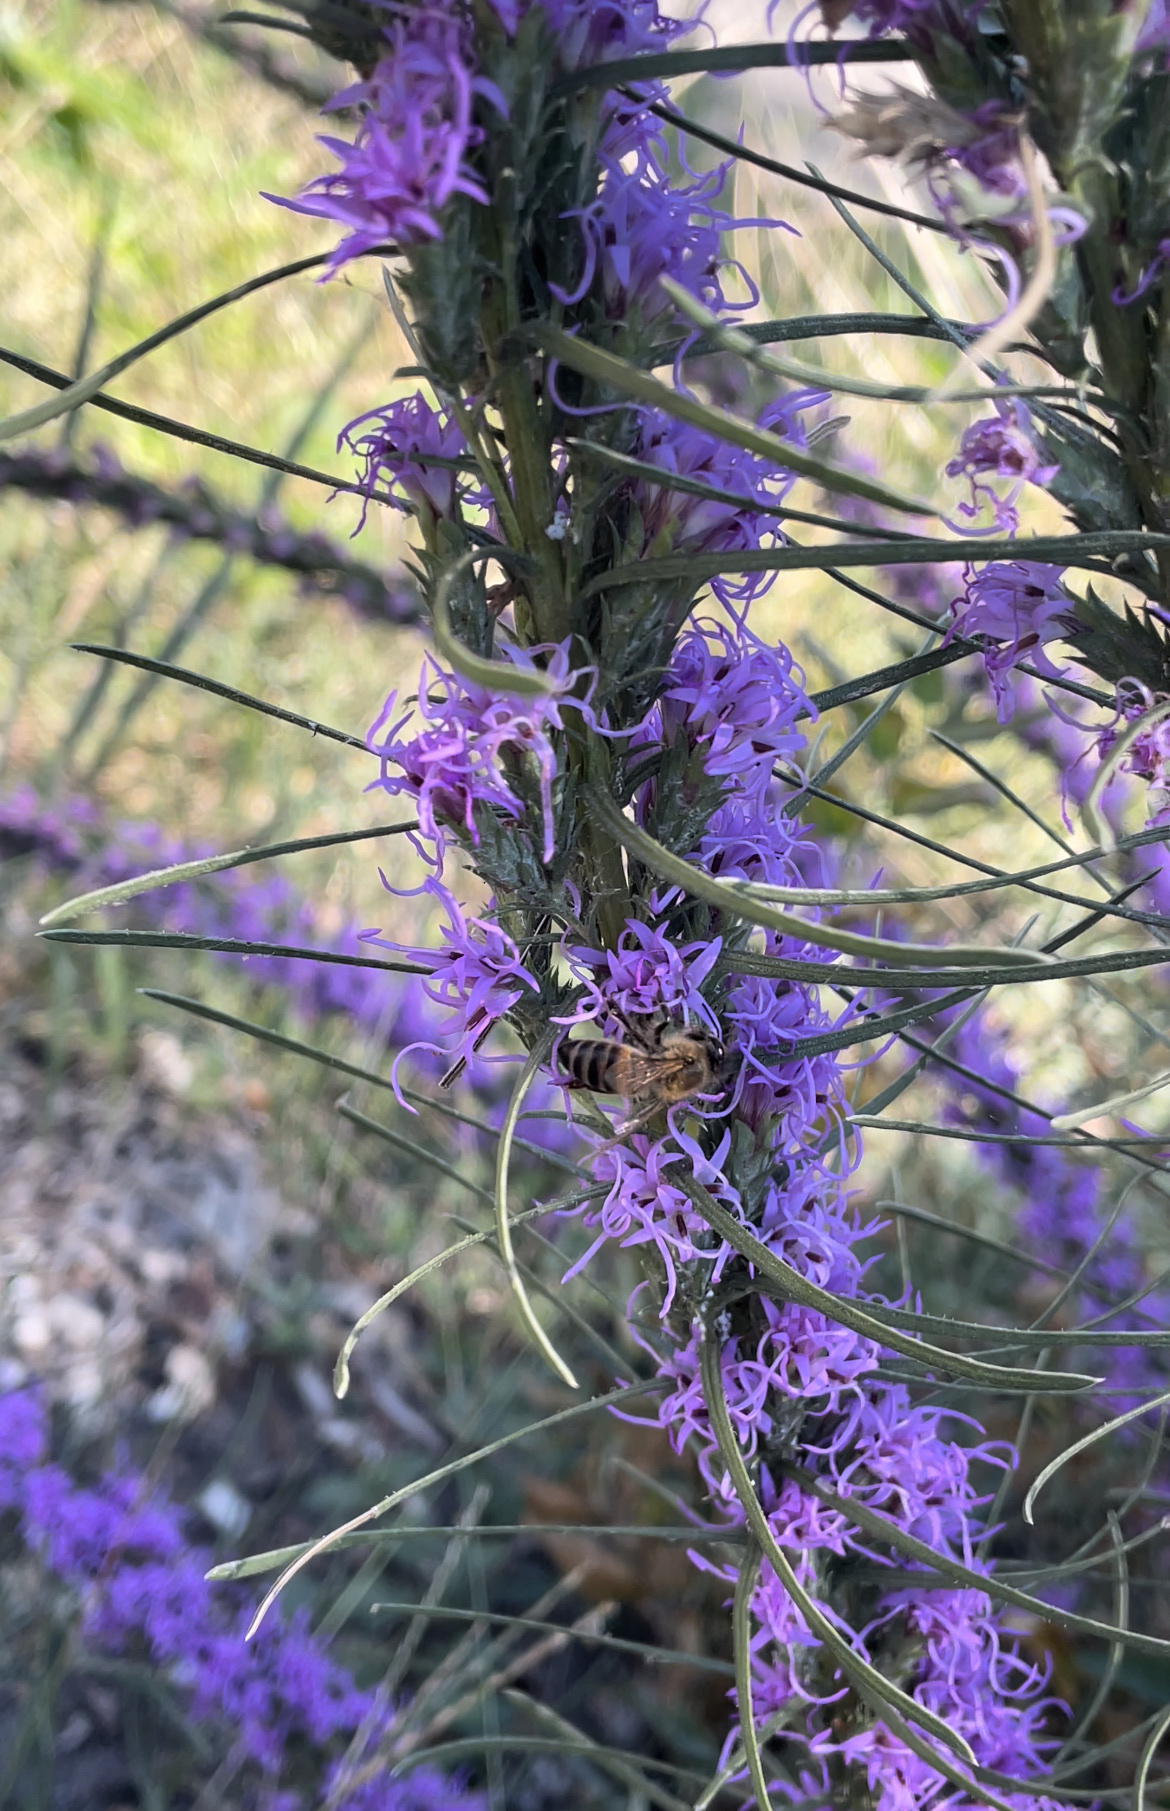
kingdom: Animalia
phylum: Arthropoda
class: Insecta
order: Hymenoptera
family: Apidae
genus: Apis
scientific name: Apis mellifera
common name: Honey bee
